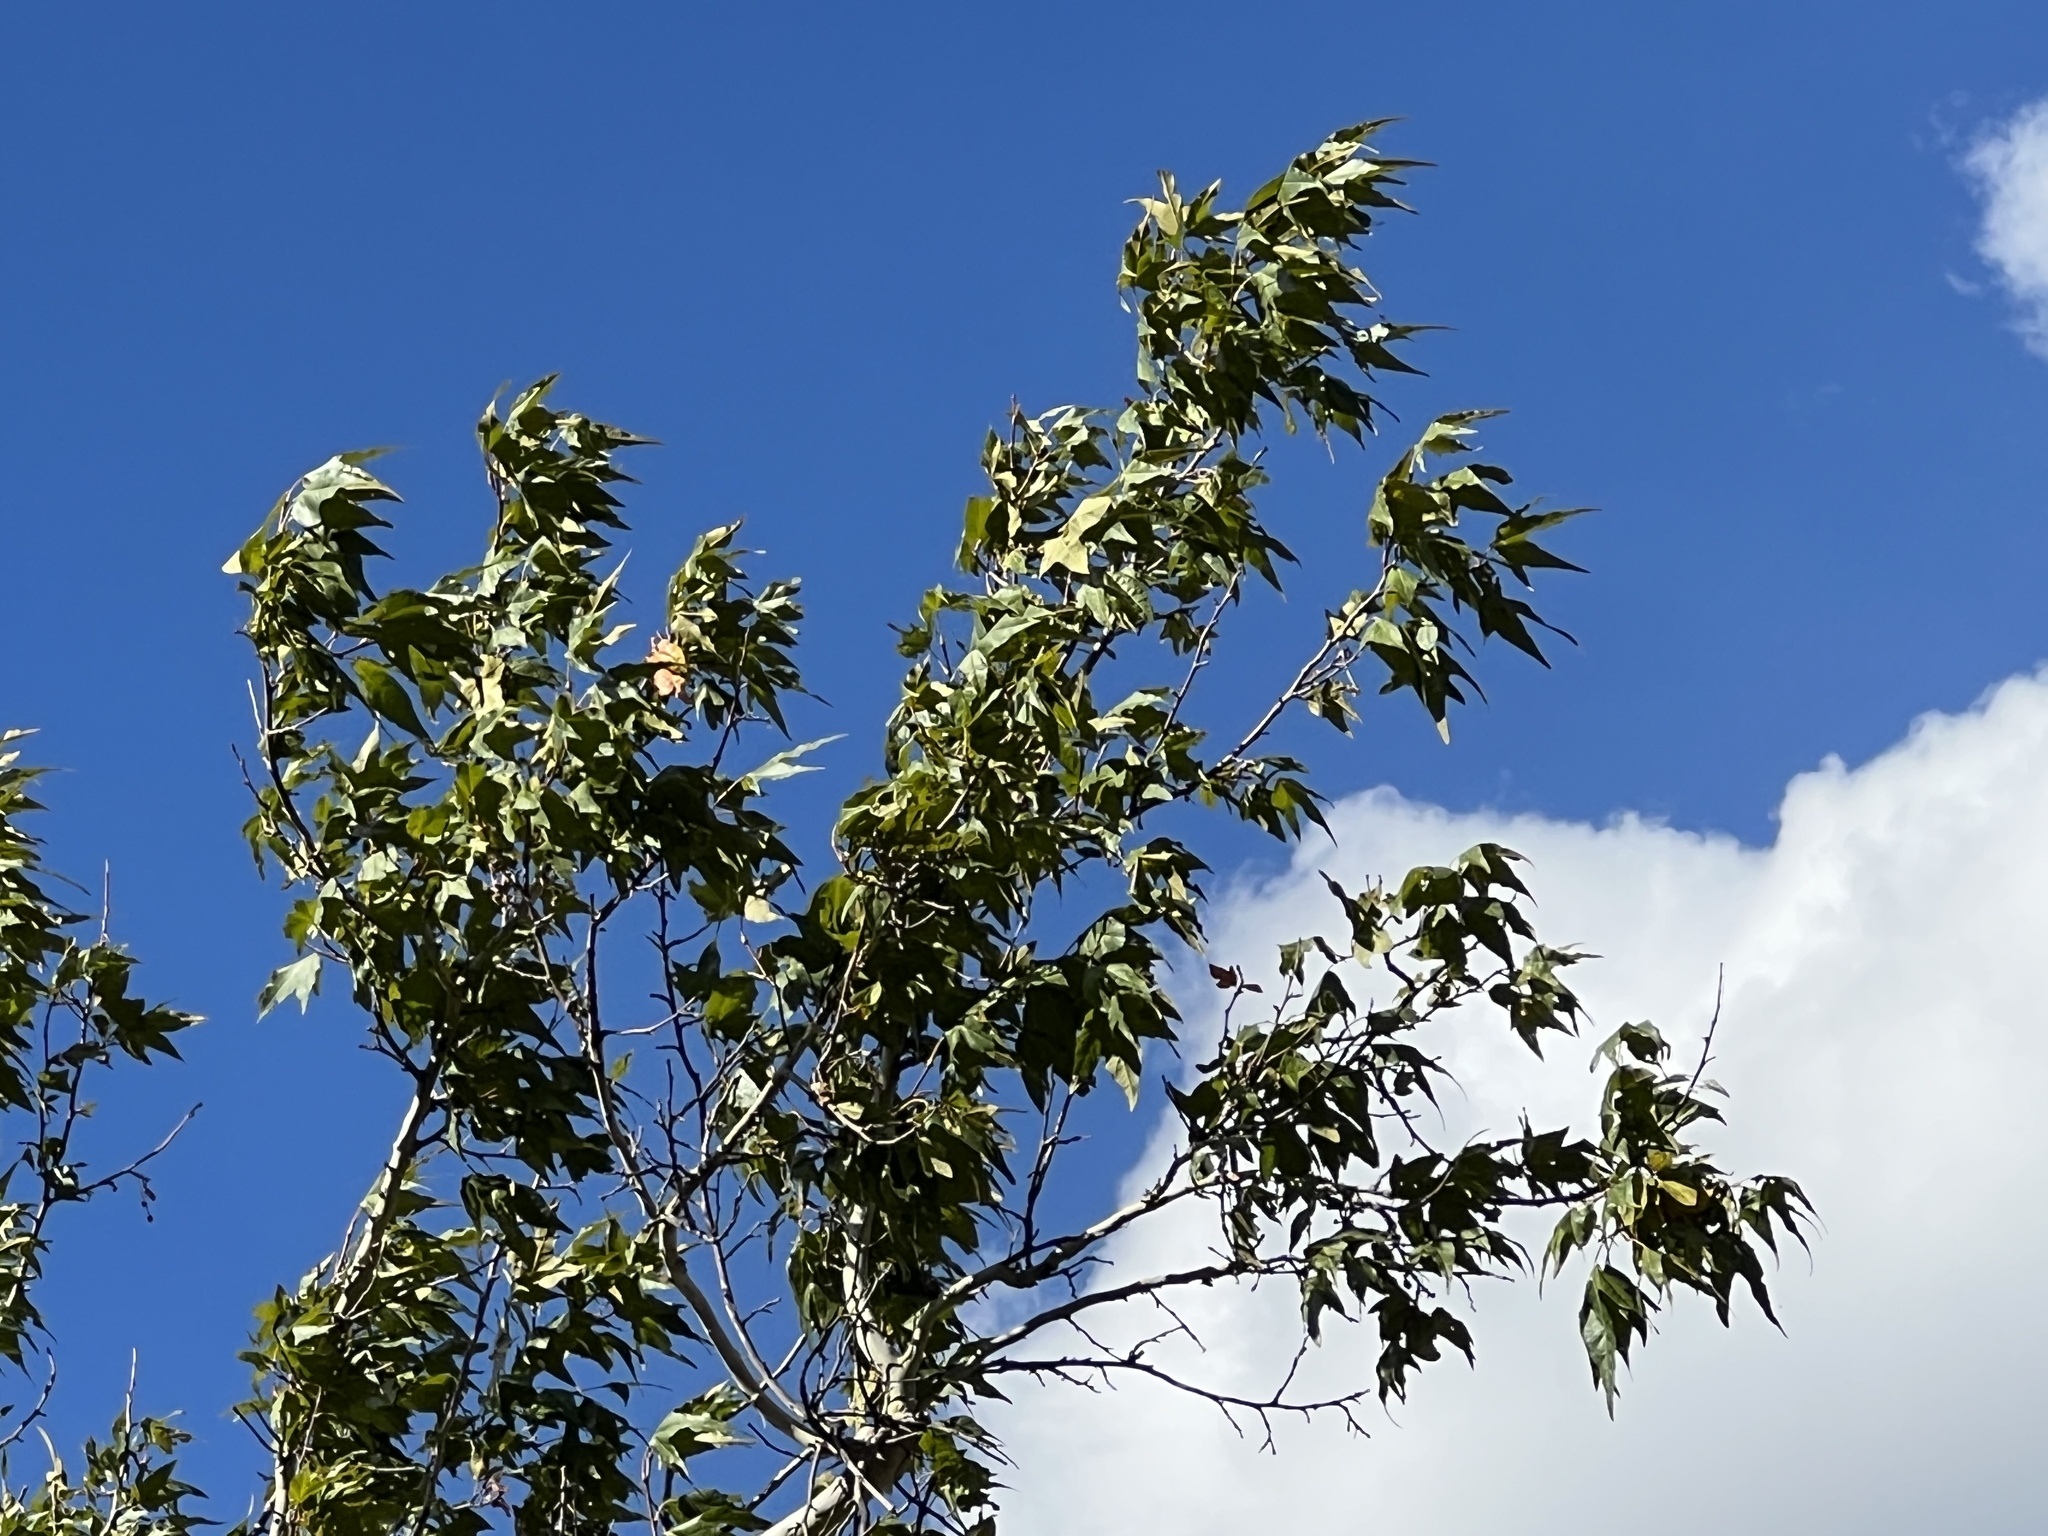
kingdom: Plantae
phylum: Tracheophyta
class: Magnoliopsida
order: Proteales
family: Platanaceae
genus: Platanus
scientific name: Platanus wrightii
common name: Arizona sycamore
